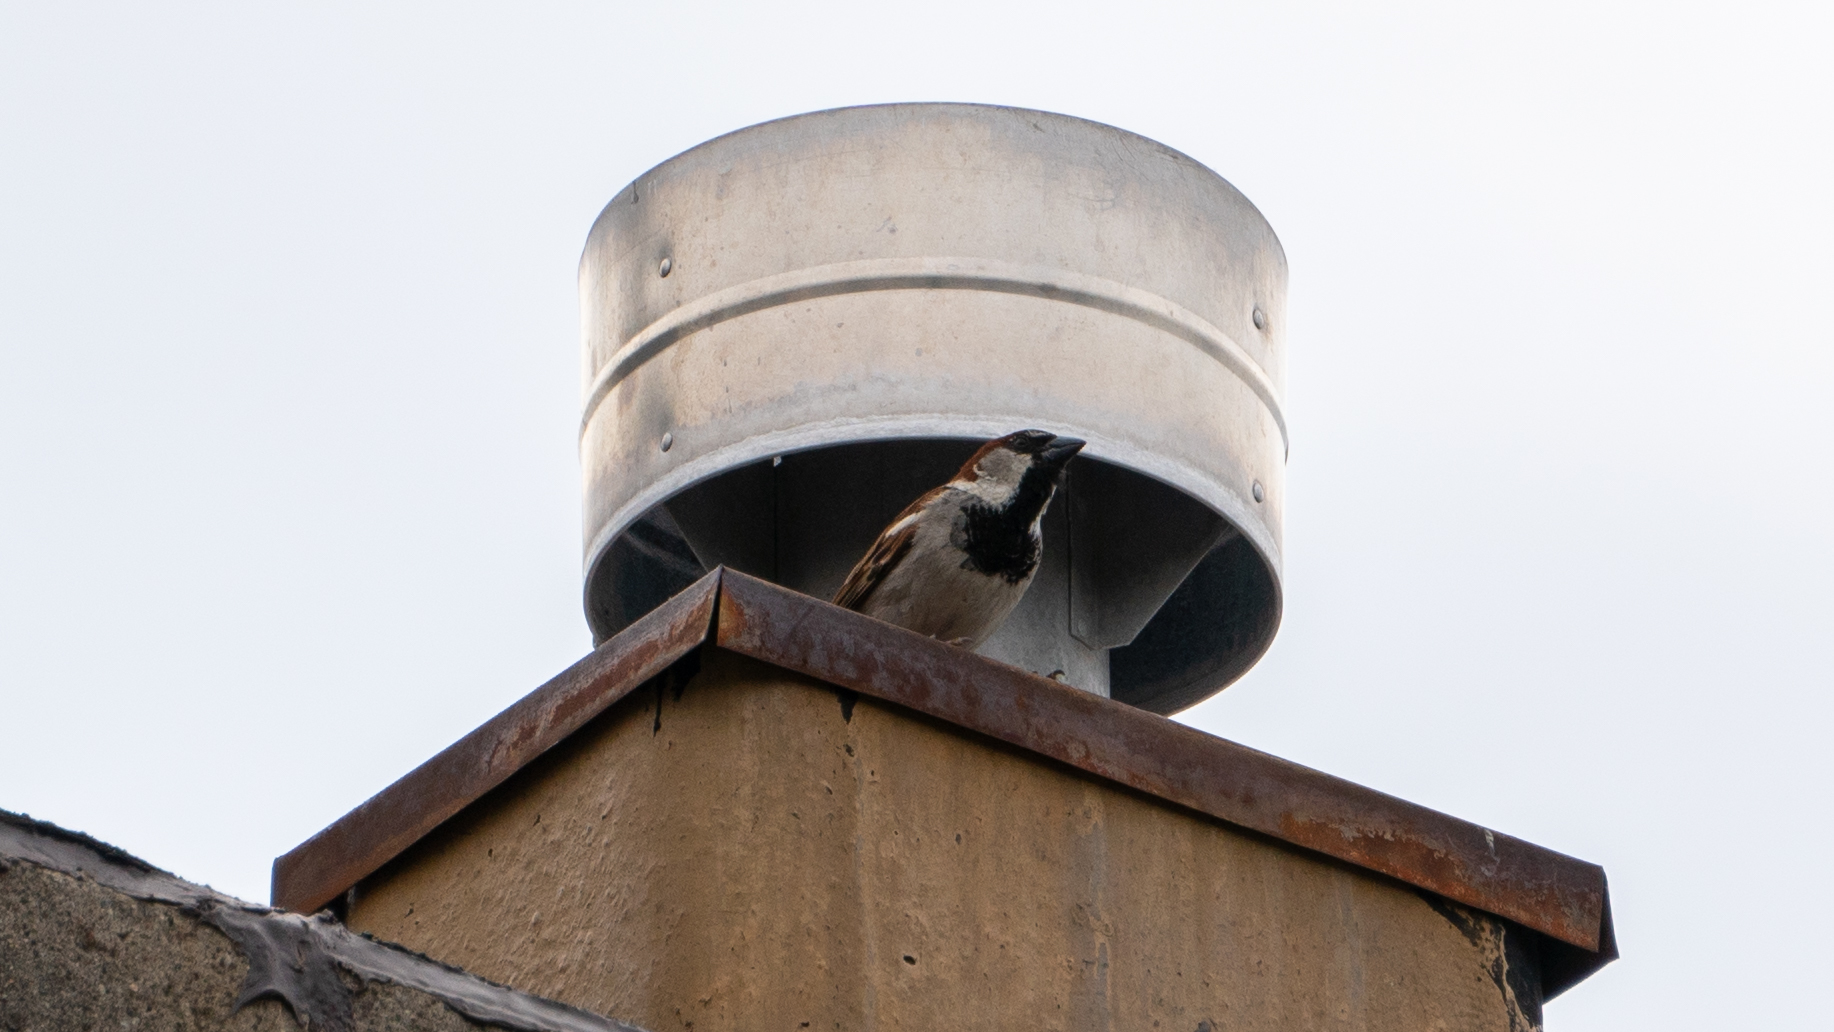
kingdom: Animalia
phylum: Chordata
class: Aves
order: Passeriformes
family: Passeridae
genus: Passer
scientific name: Passer domesticus
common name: House sparrow
